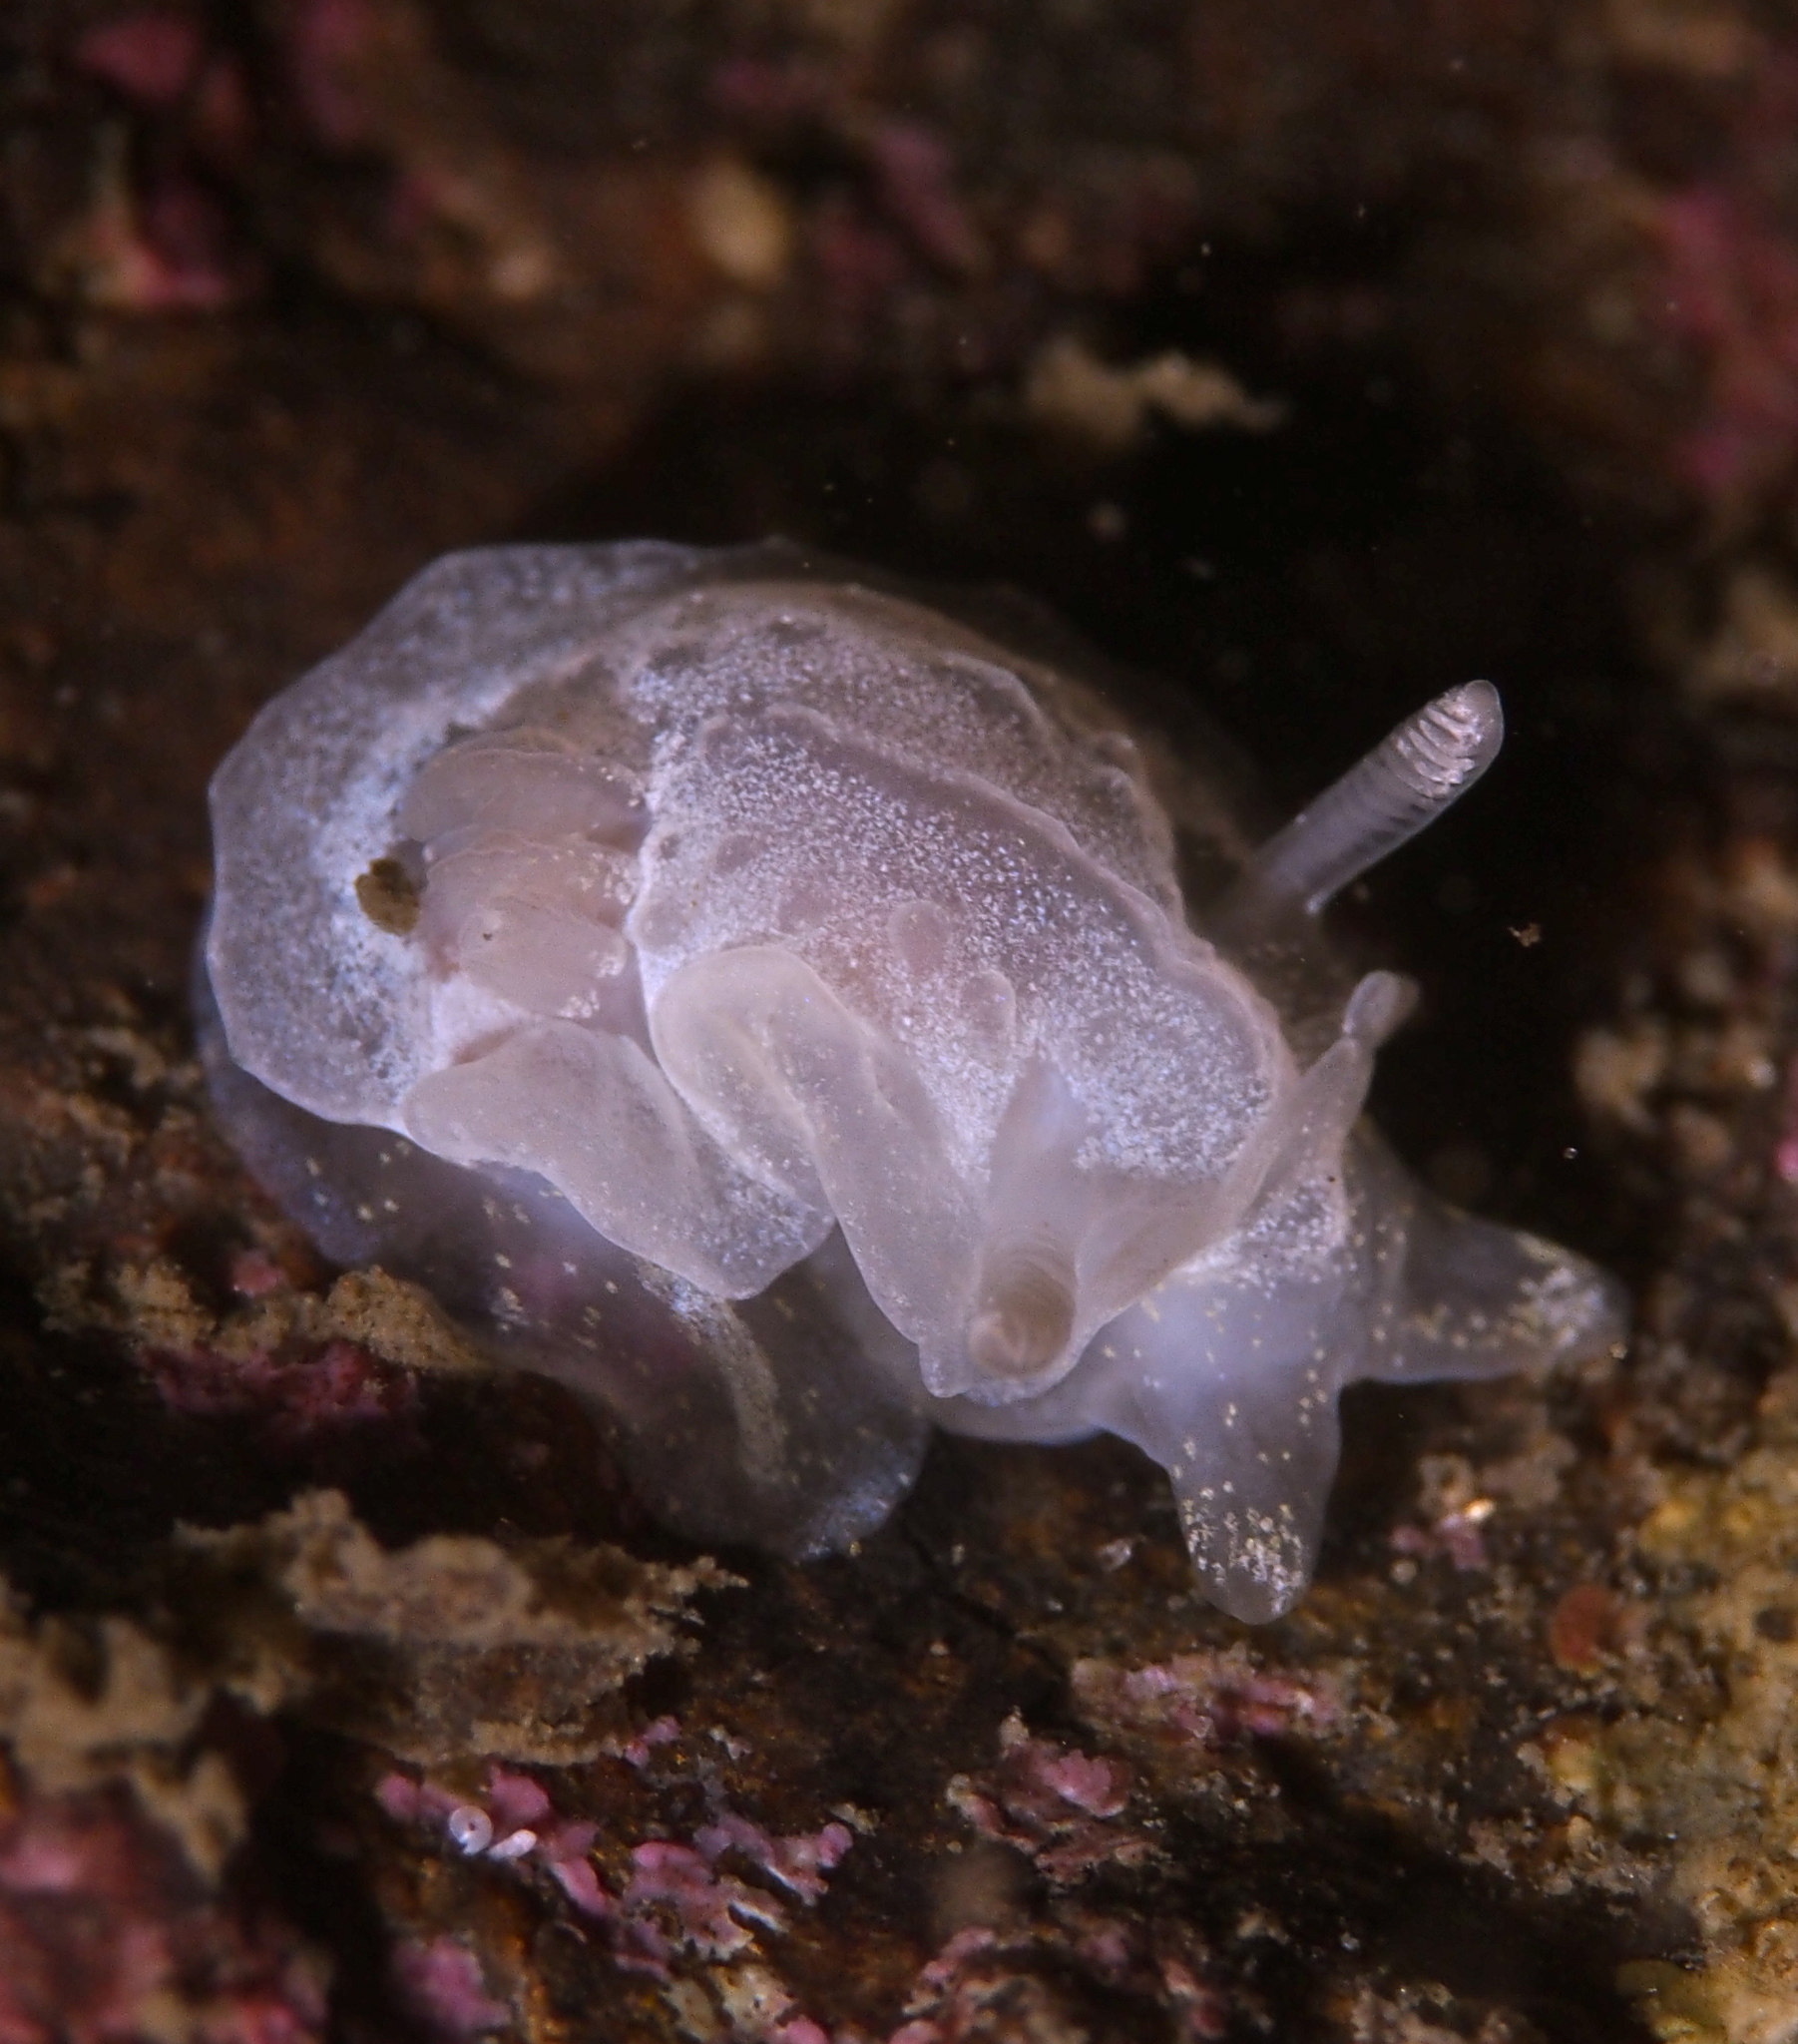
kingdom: Animalia
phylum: Mollusca
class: Gastropoda
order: Nudibranchia
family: Goniodorididae
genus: Okenia
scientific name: Okenia
